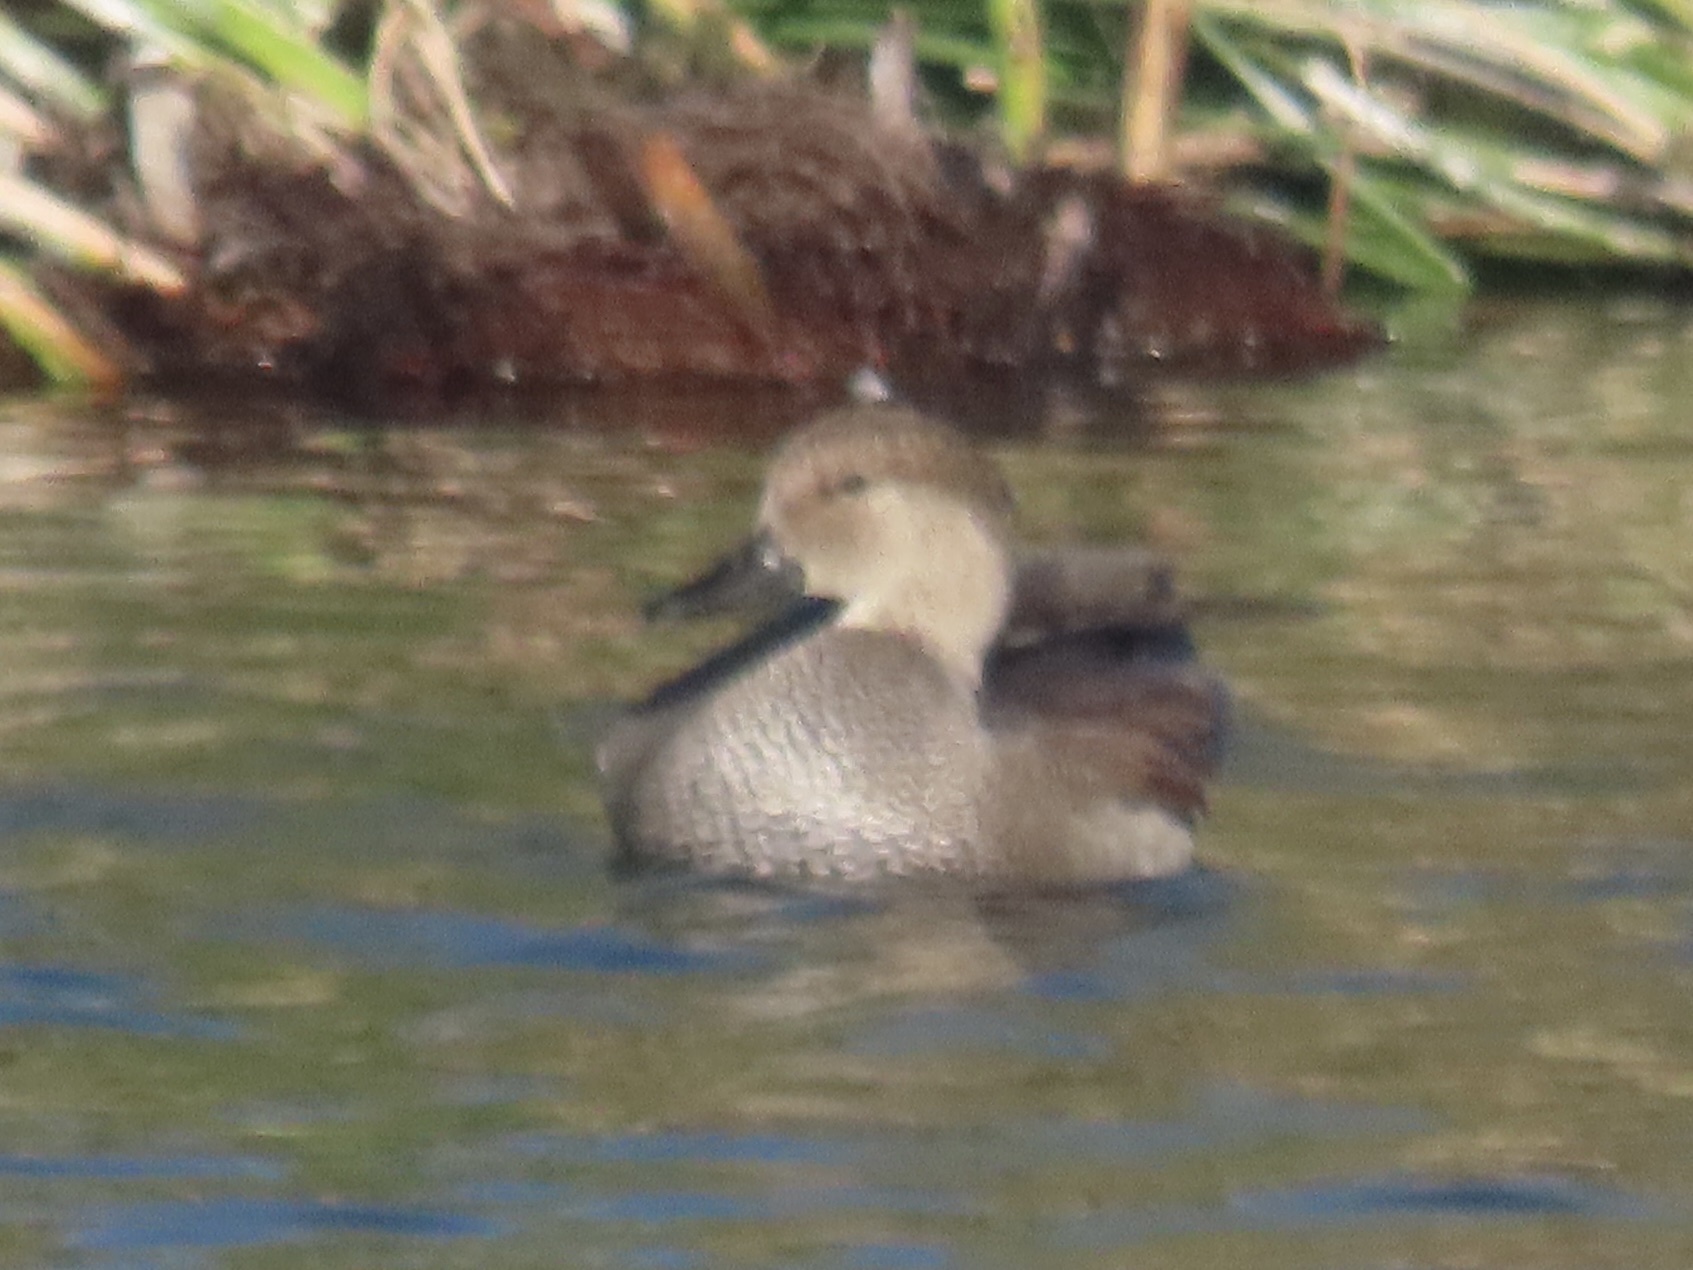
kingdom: Animalia
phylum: Chordata
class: Aves
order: Anseriformes
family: Anatidae
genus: Mareca
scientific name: Mareca strepera
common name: Gadwall
